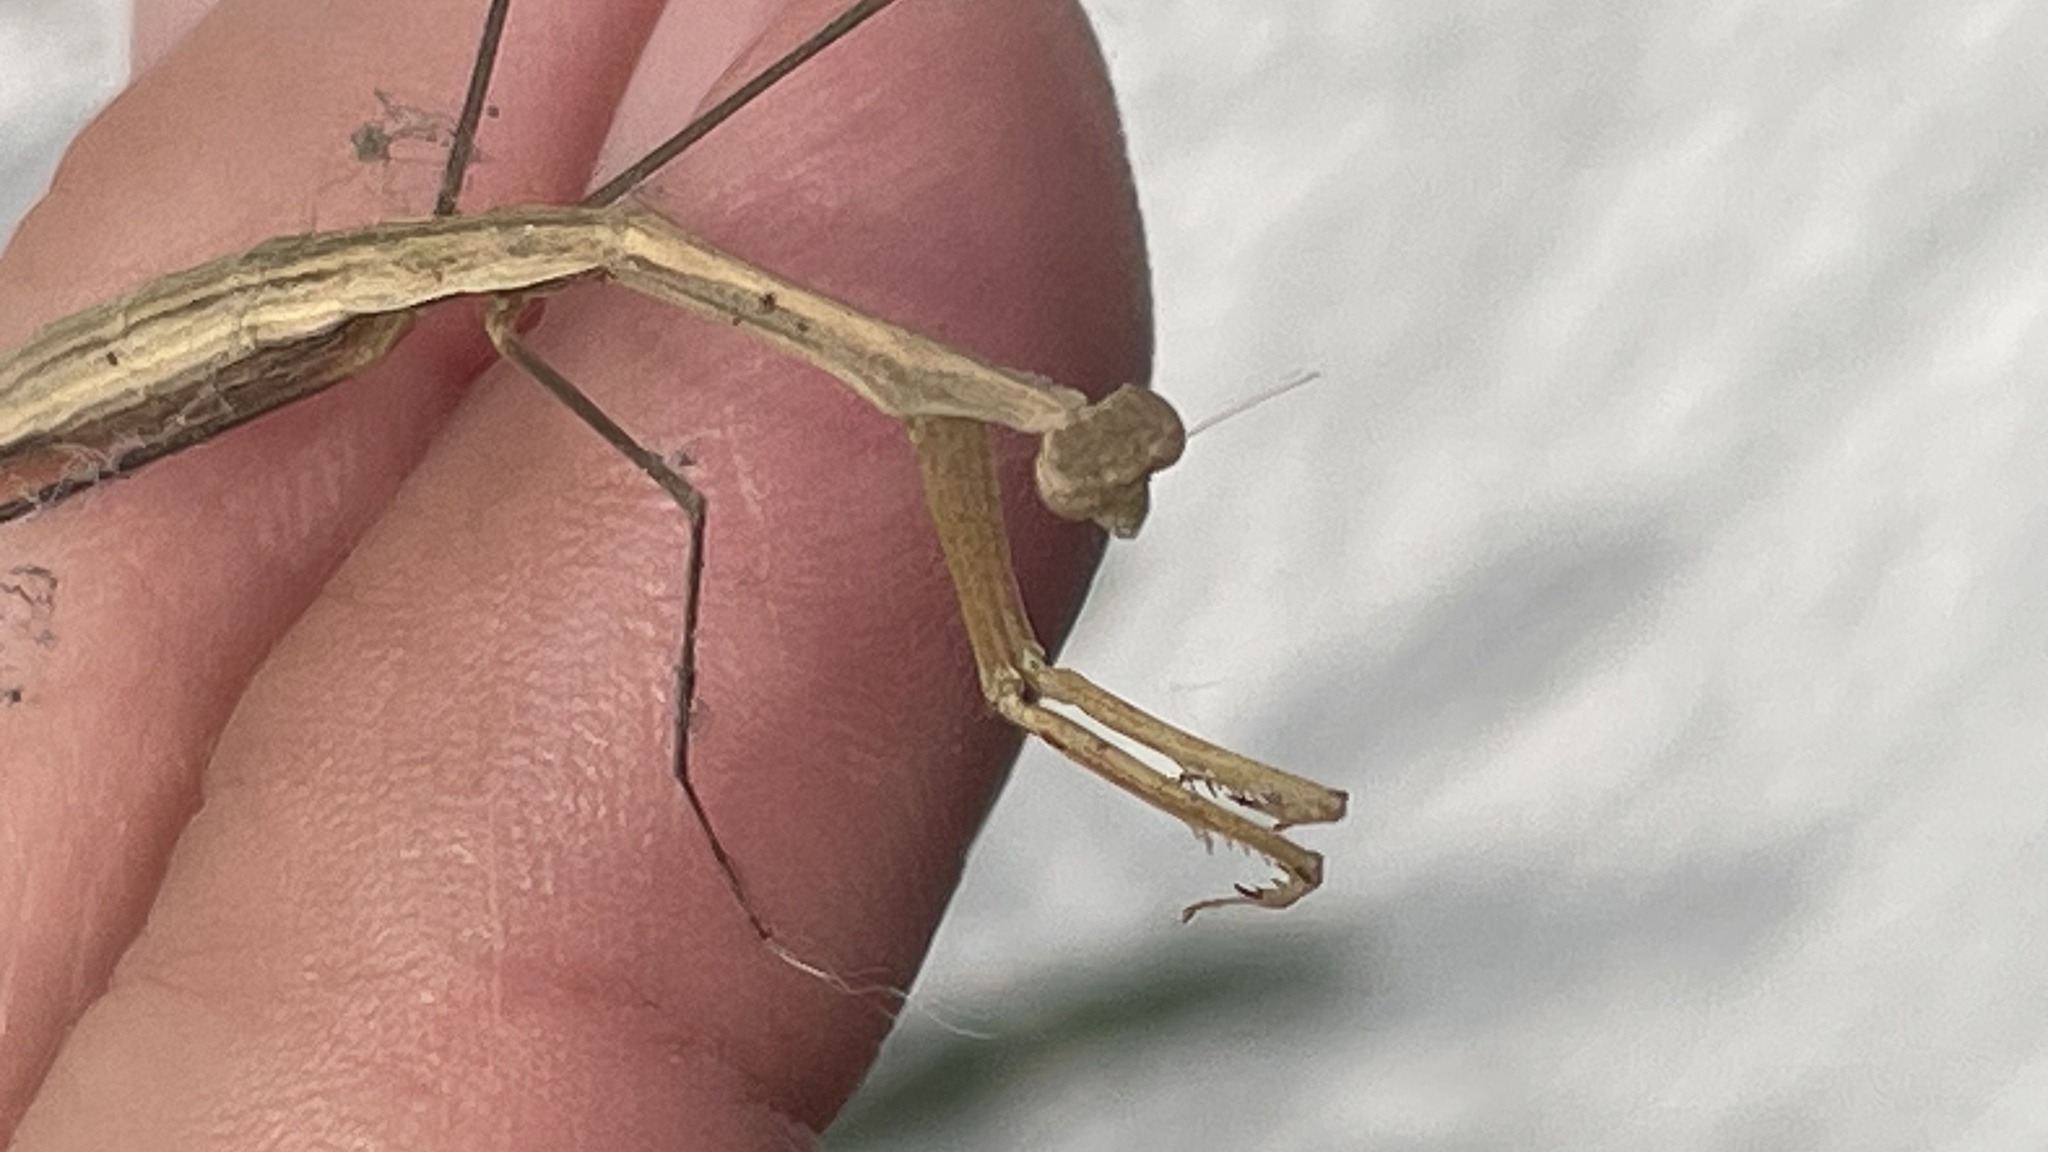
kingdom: Animalia
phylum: Arthropoda
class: Insecta
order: Mantodea
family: Thespidae
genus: Bistanta
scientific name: Bistanta mexicana
